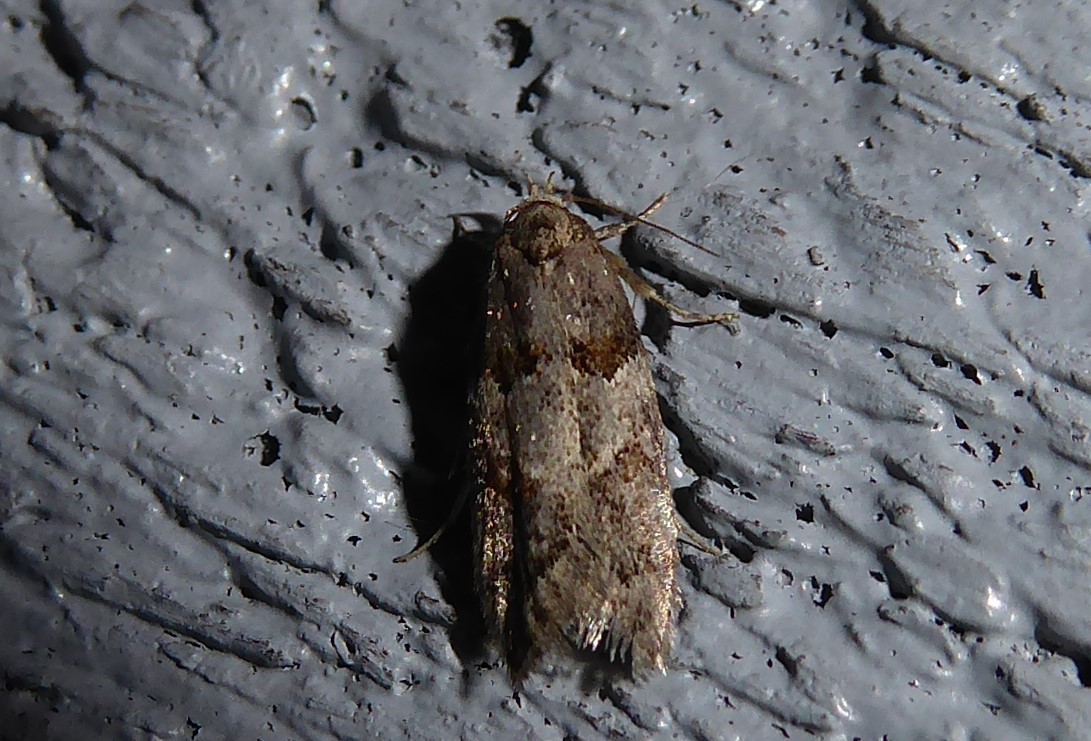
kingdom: Animalia
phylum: Arthropoda
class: Insecta
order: Lepidoptera
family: Oecophoridae
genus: Trachypepla
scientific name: Trachypepla contritella
